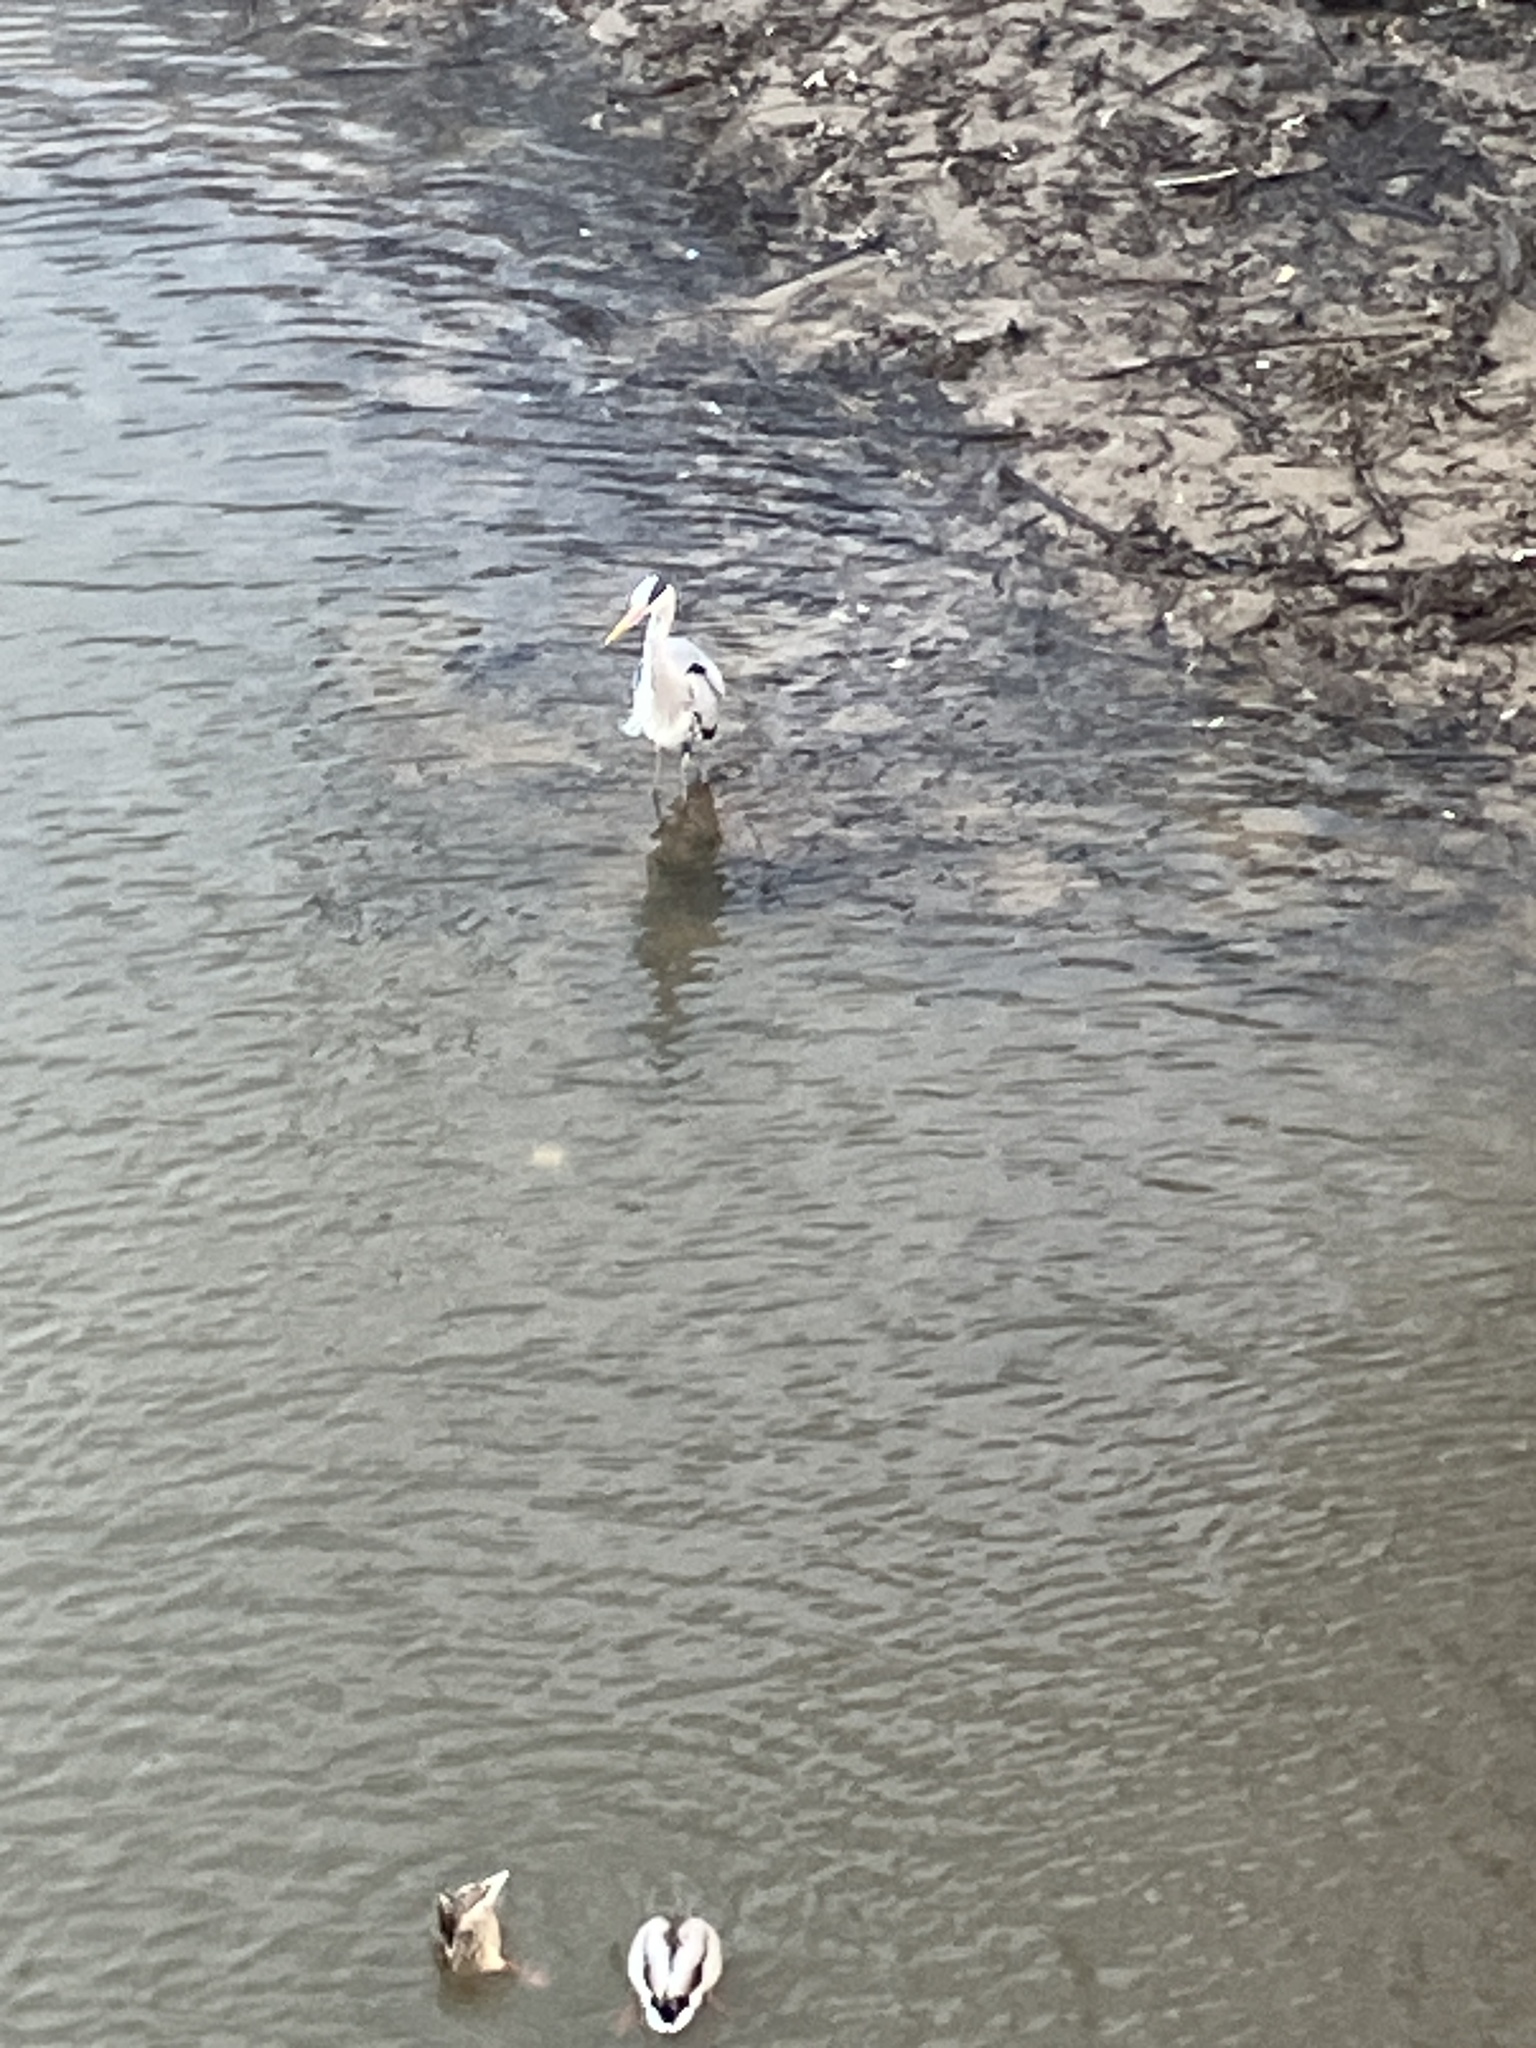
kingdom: Animalia
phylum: Chordata
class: Aves
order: Pelecaniformes
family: Ardeidae
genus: Ardea
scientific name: Ardea cinerea
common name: Grey heron
